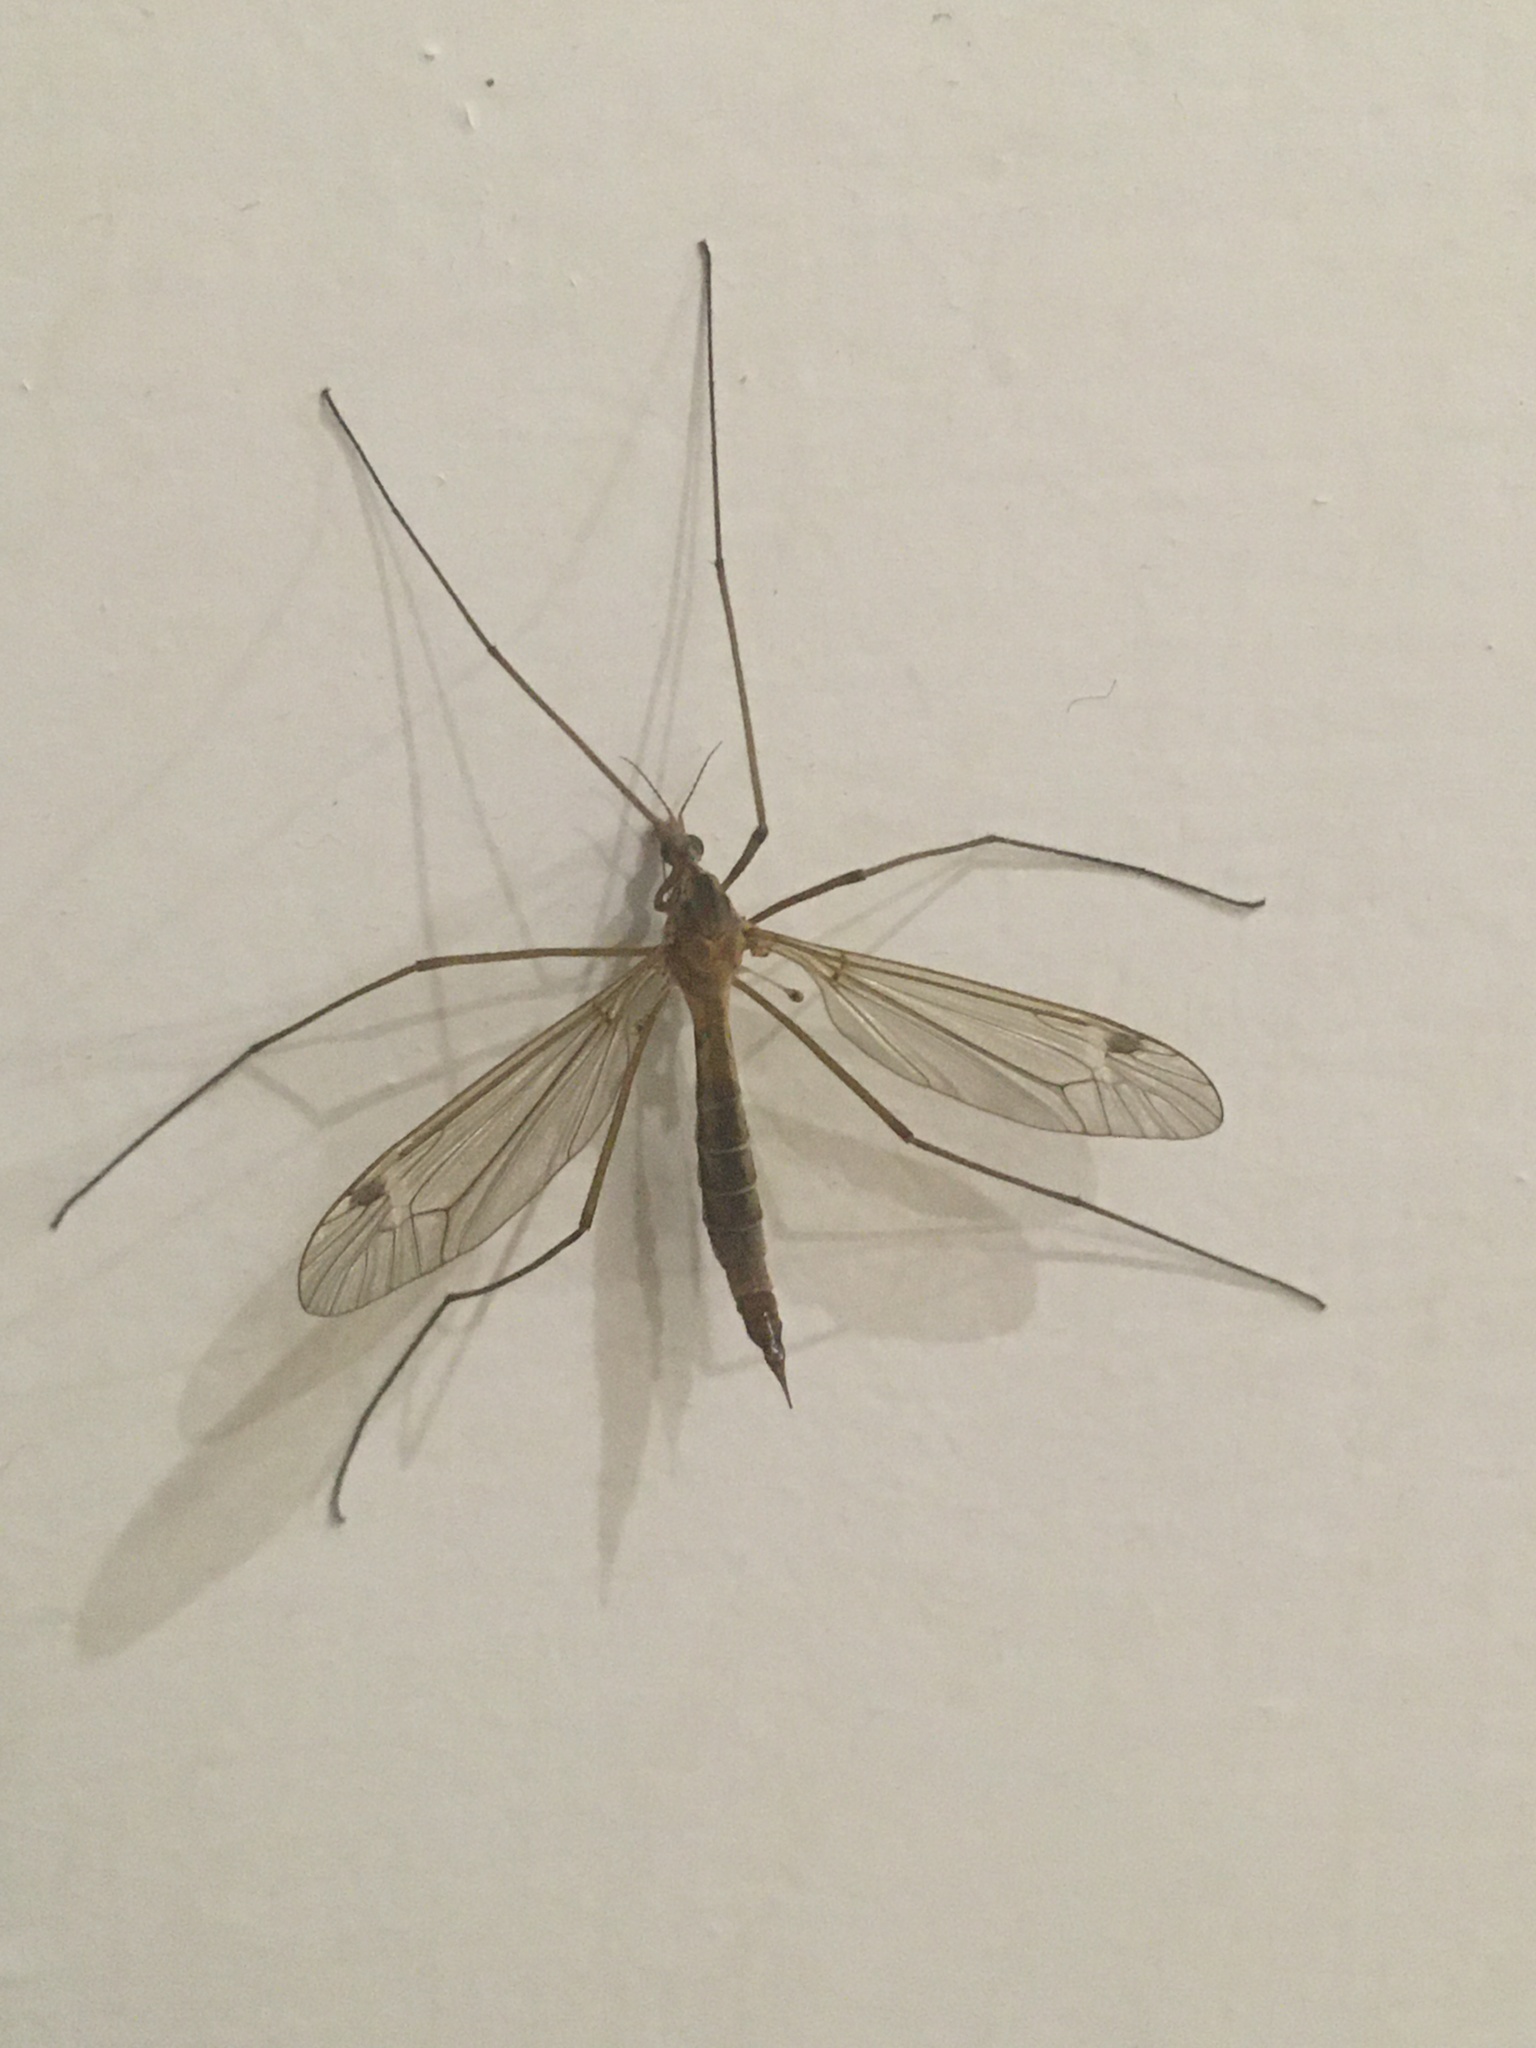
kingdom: Animalia
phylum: Arthropoda
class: Insecta
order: Diptera
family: Tipulidae
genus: Tipula
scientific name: Tipula
